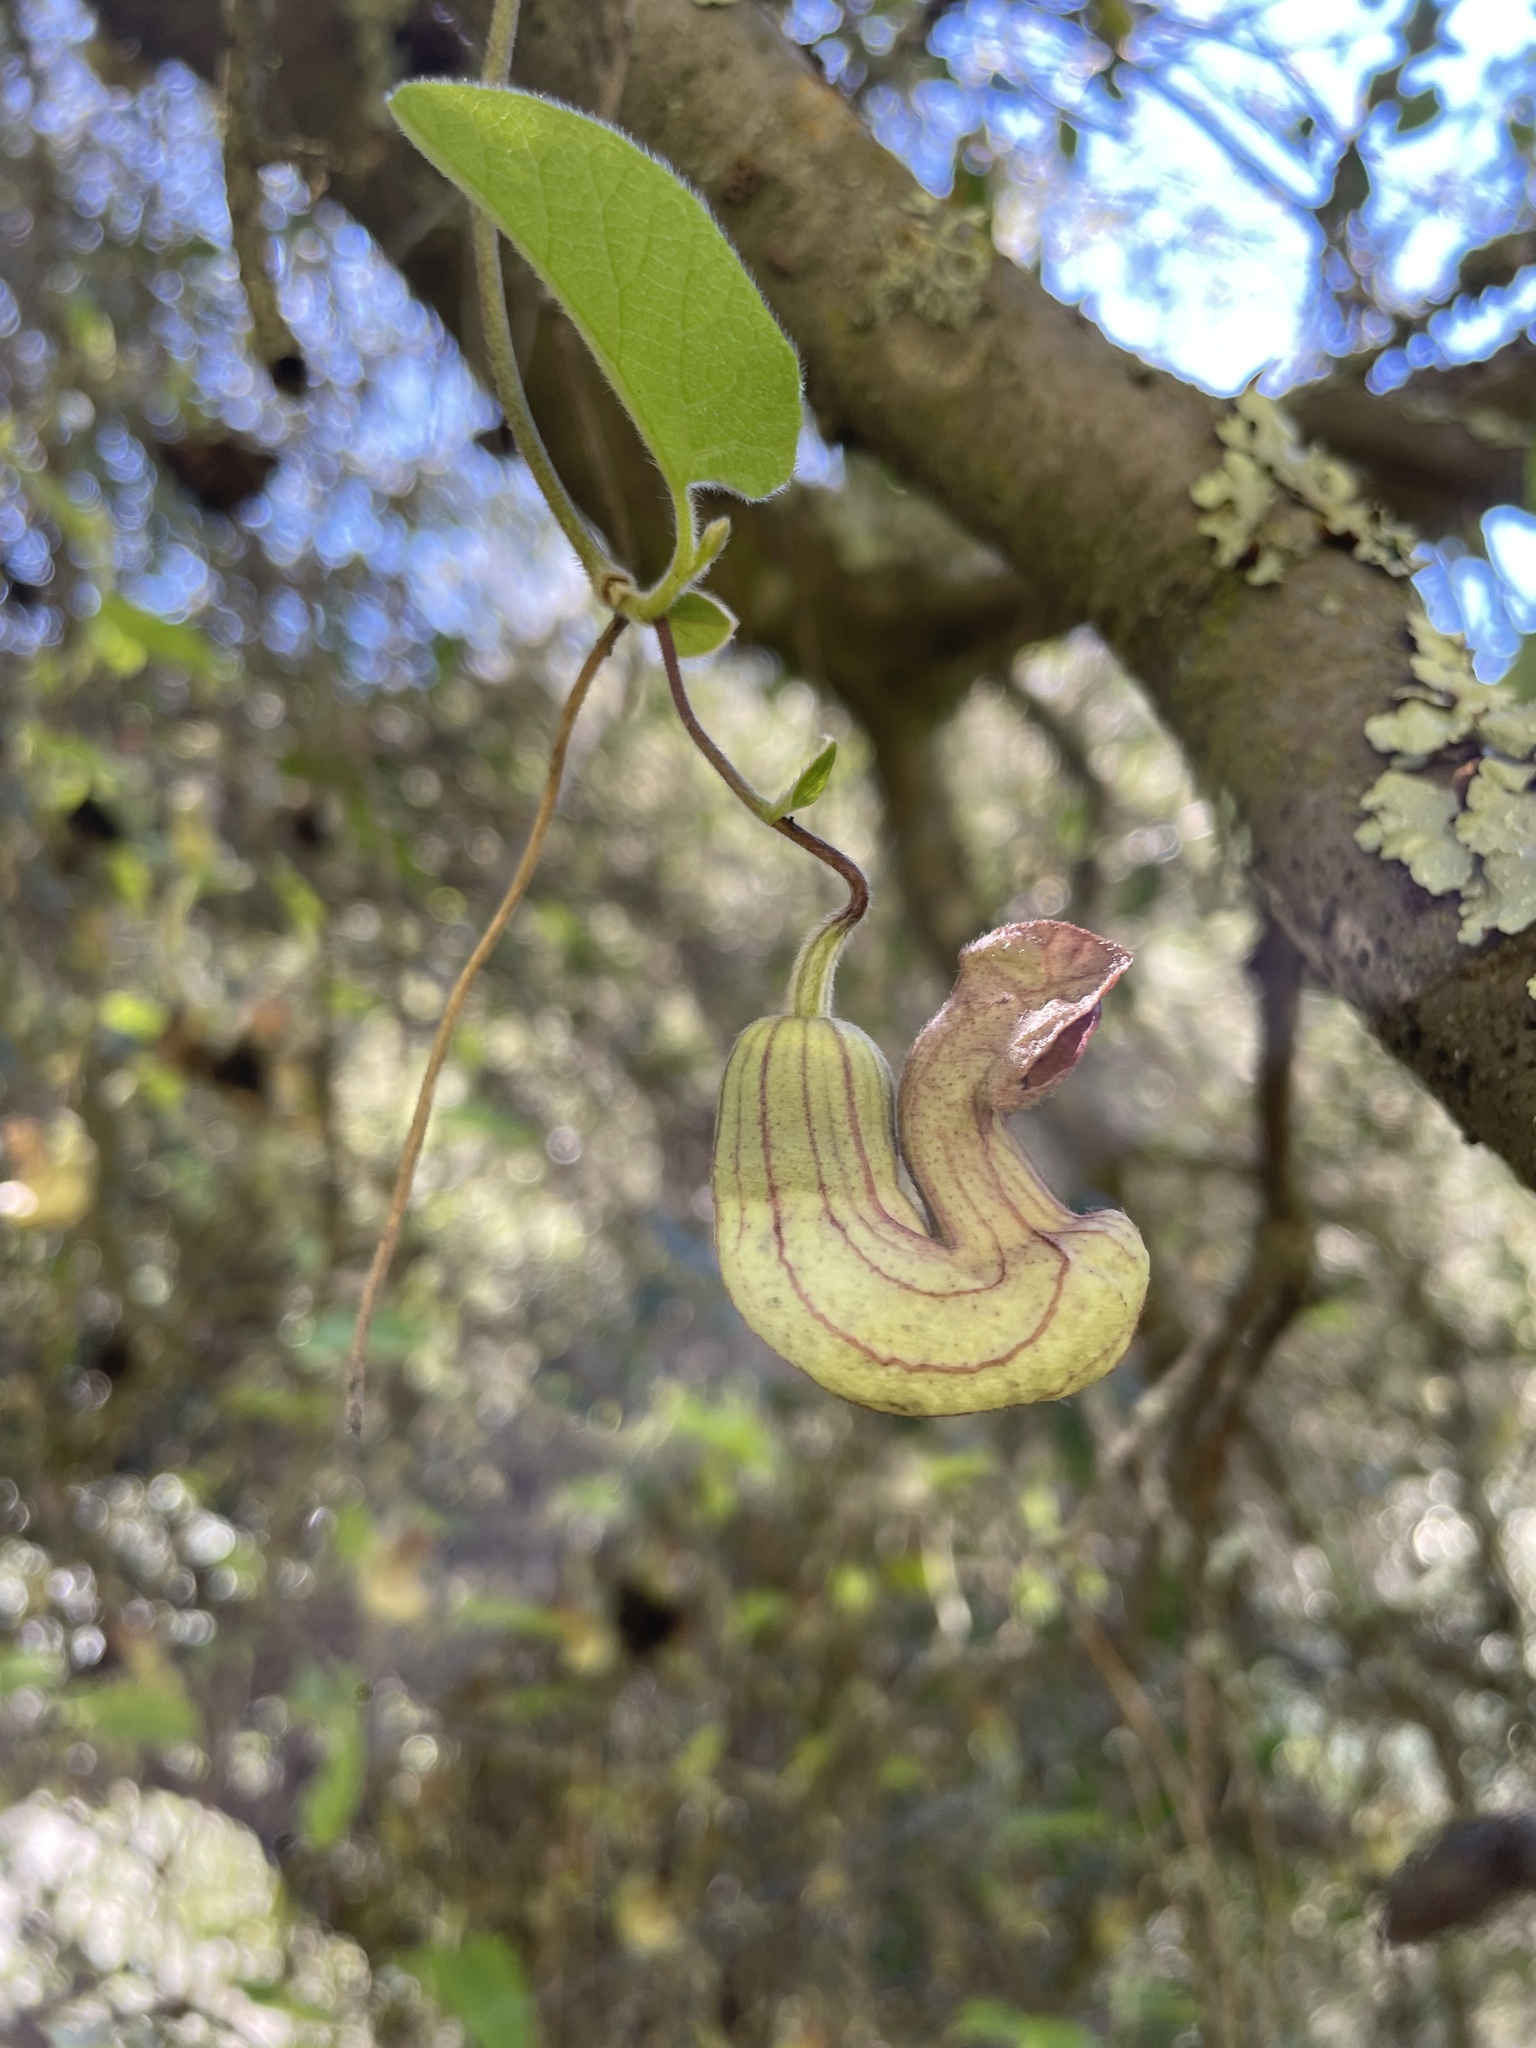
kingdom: Plantae
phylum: Tracheophyta
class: Magnoliopsida
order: Piperales
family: Aristolochiaceae
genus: Isotrema
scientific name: Isotrema californicum
